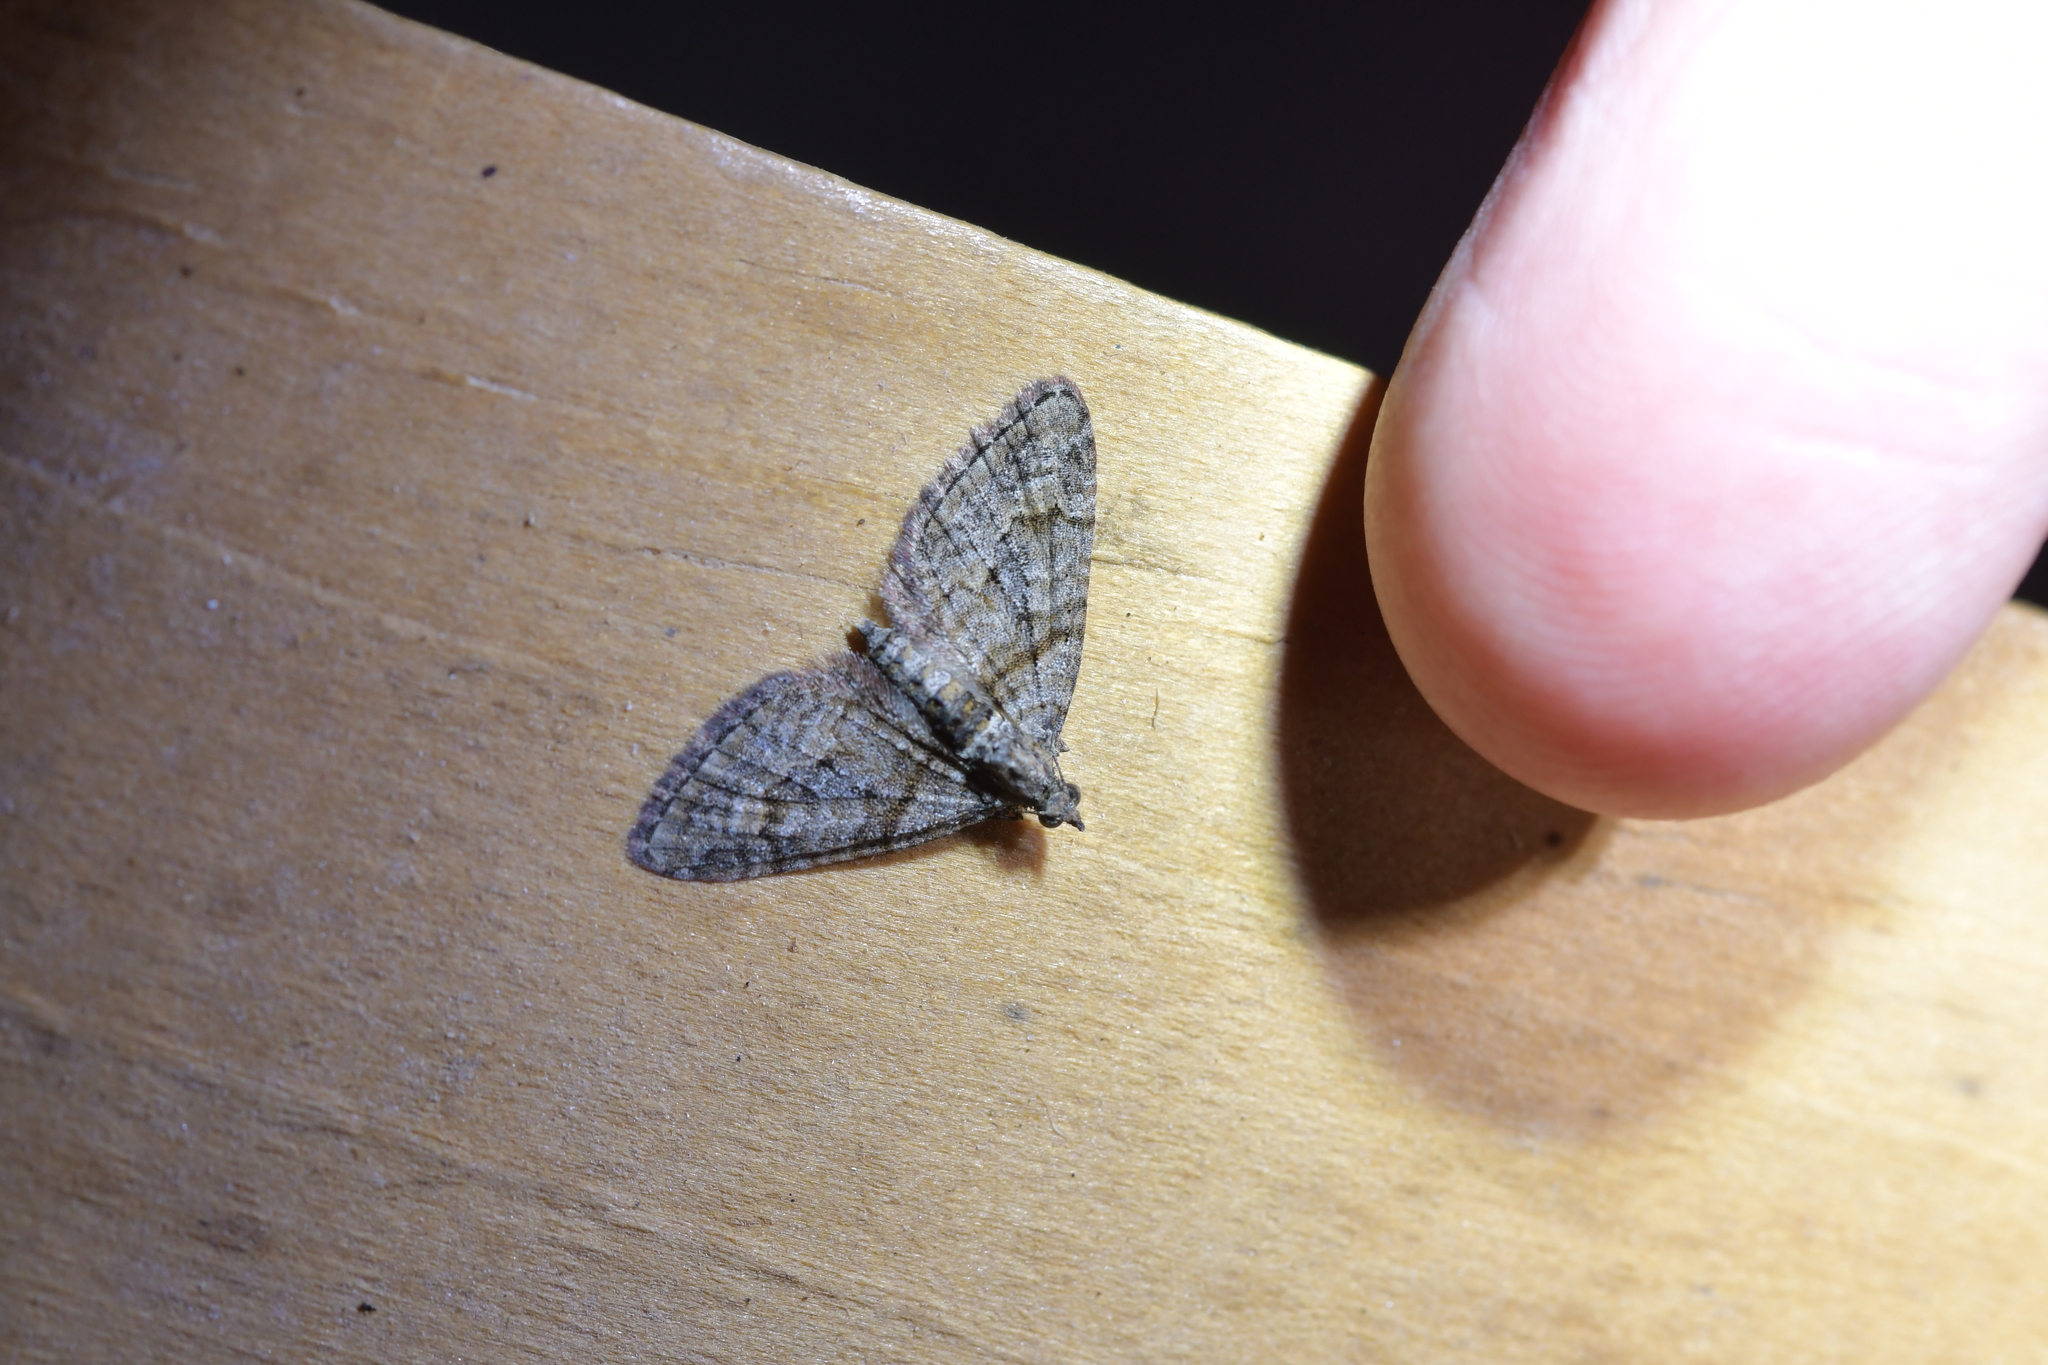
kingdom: Animalia
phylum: Arthropoda
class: Insecta
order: Lepidoptera
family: Geometridae
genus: Phrissogonus
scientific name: Phrissogonus laticostata
